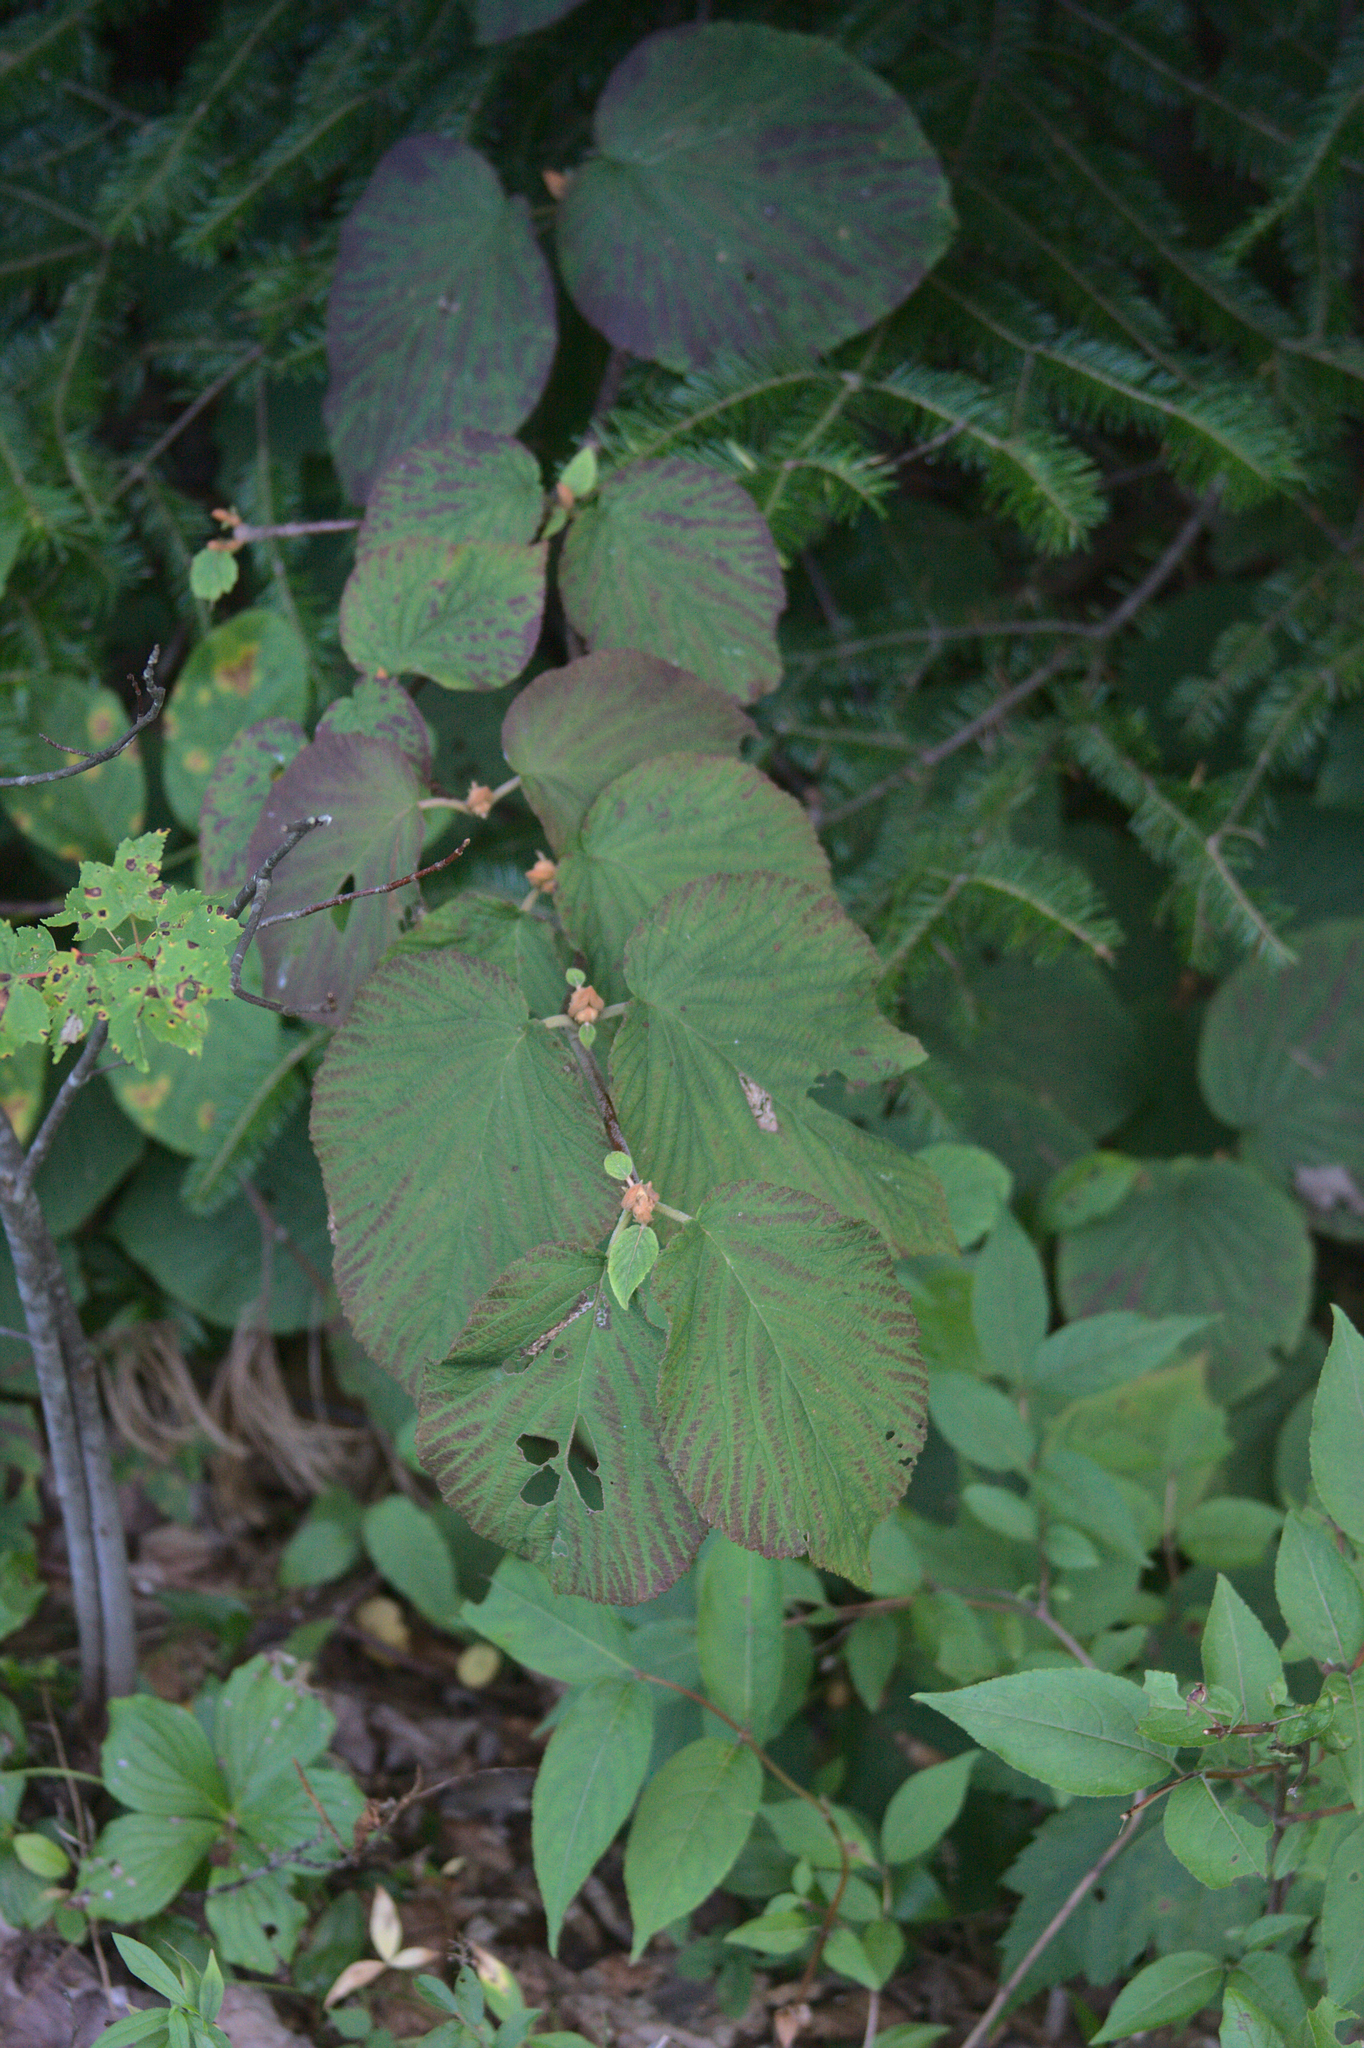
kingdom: Plantae
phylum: Tracheophyta
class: Magnoliopsida
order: Dipsacales
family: Viburnaceae
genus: Viburnum
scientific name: Viburnum lantanoides
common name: Hobblebush
